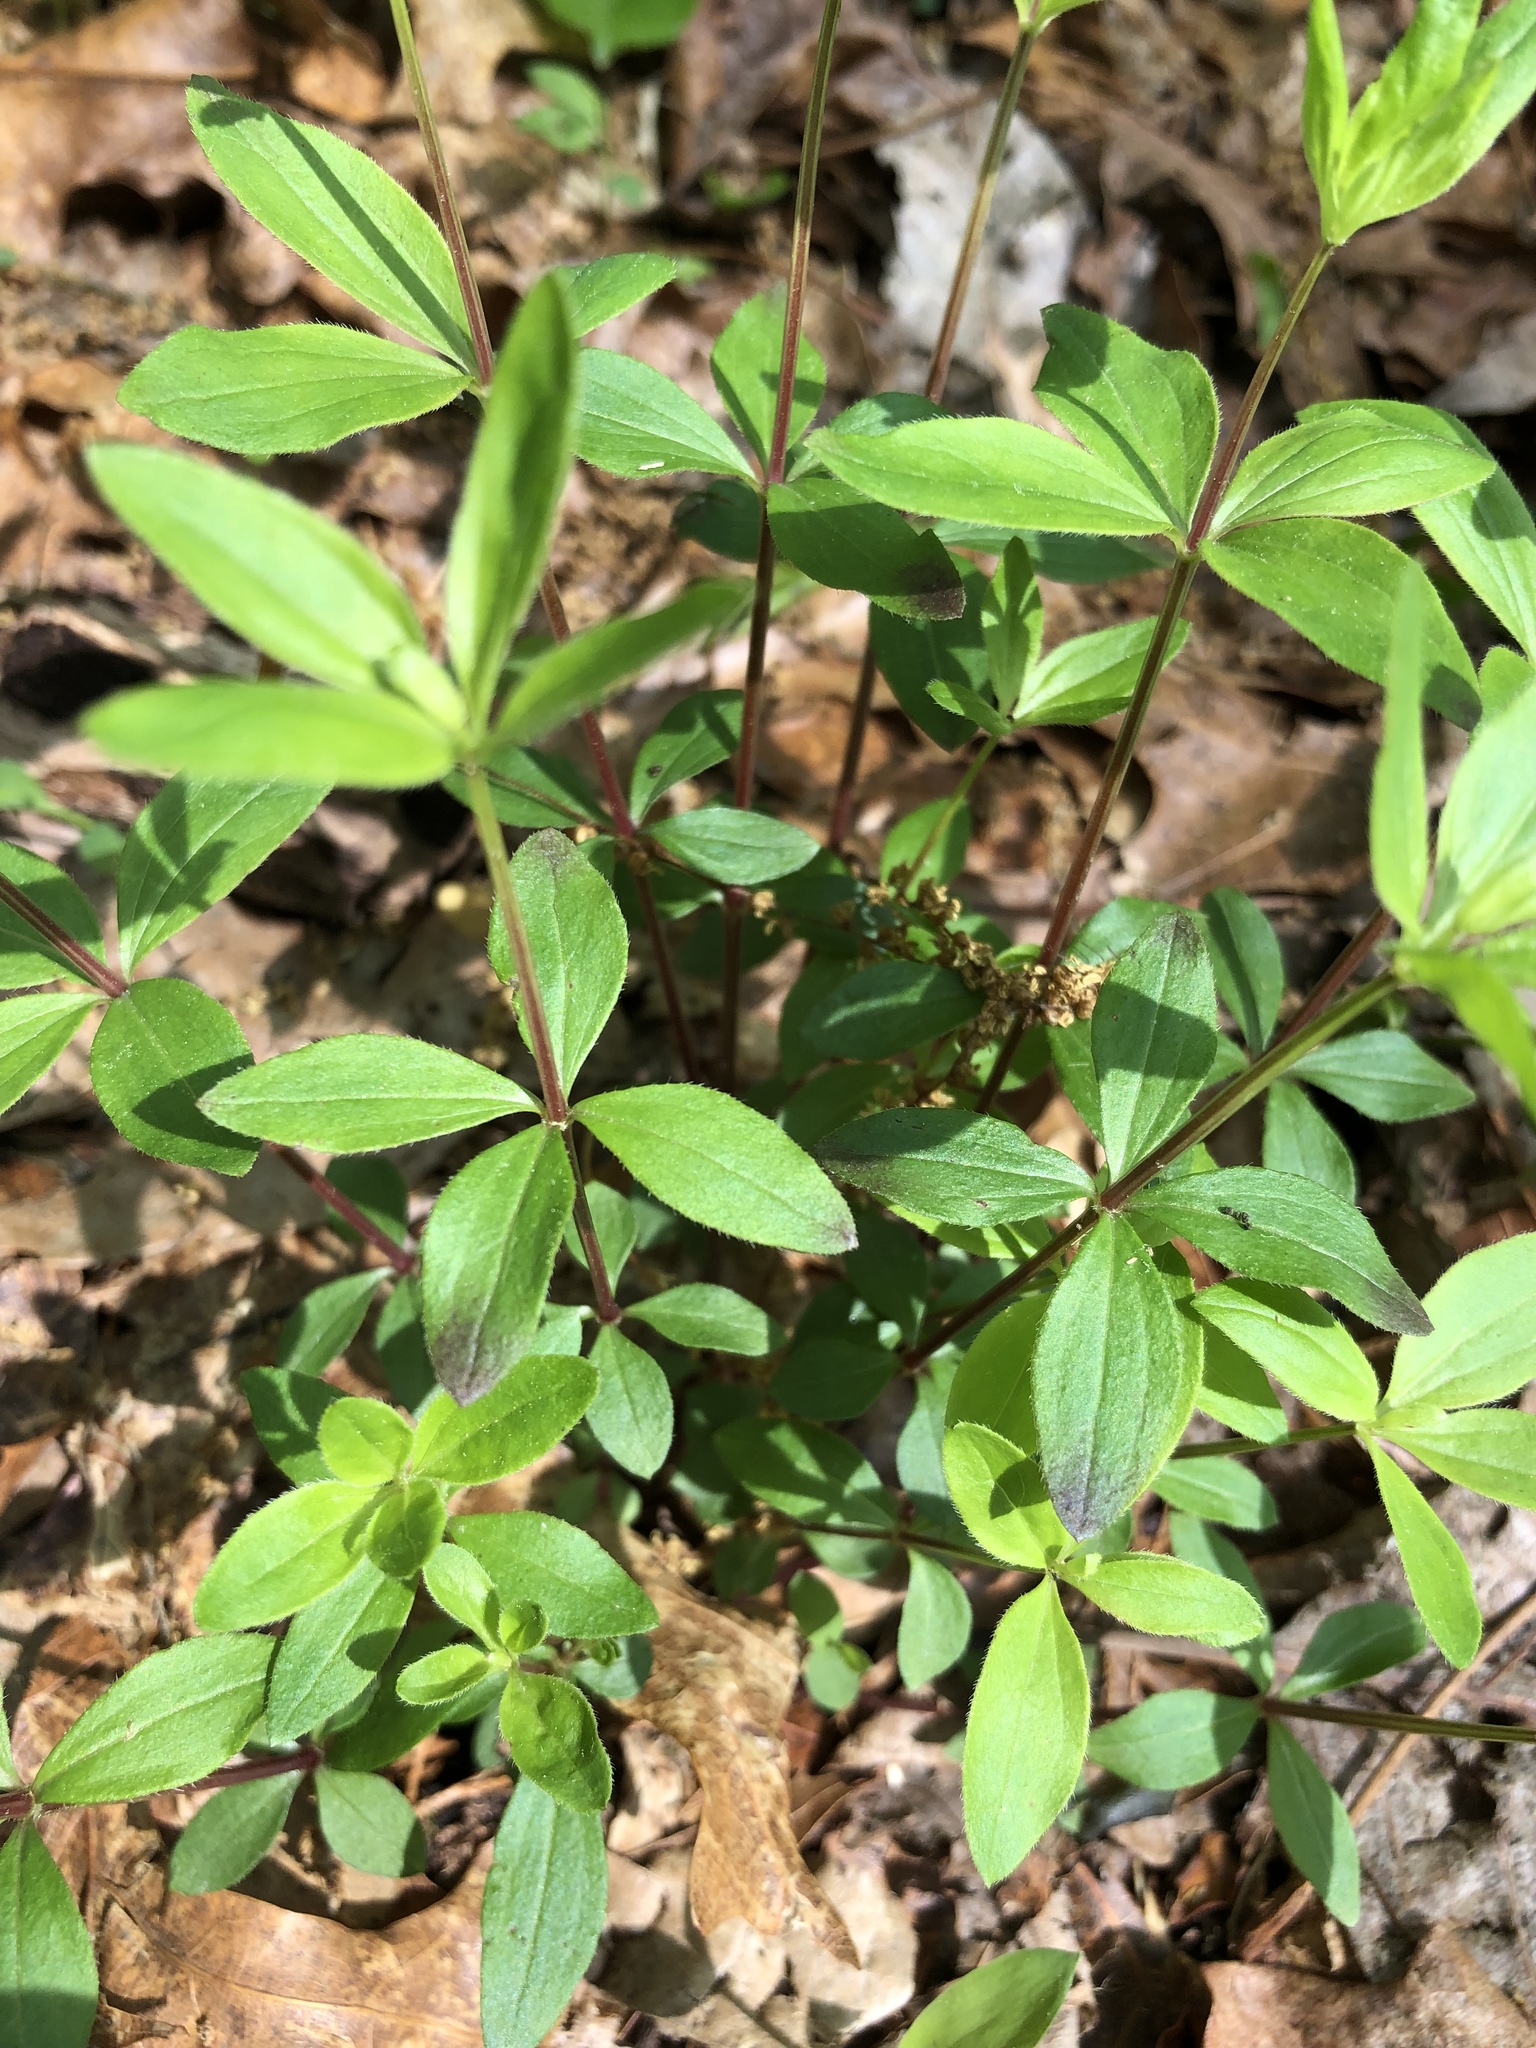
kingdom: Plantae
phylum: Tracheophyta
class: Magnoliopsida
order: Gentianales
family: Rubiaceae
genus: Galium
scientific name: Galium circaezans
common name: Forest bedstraw
